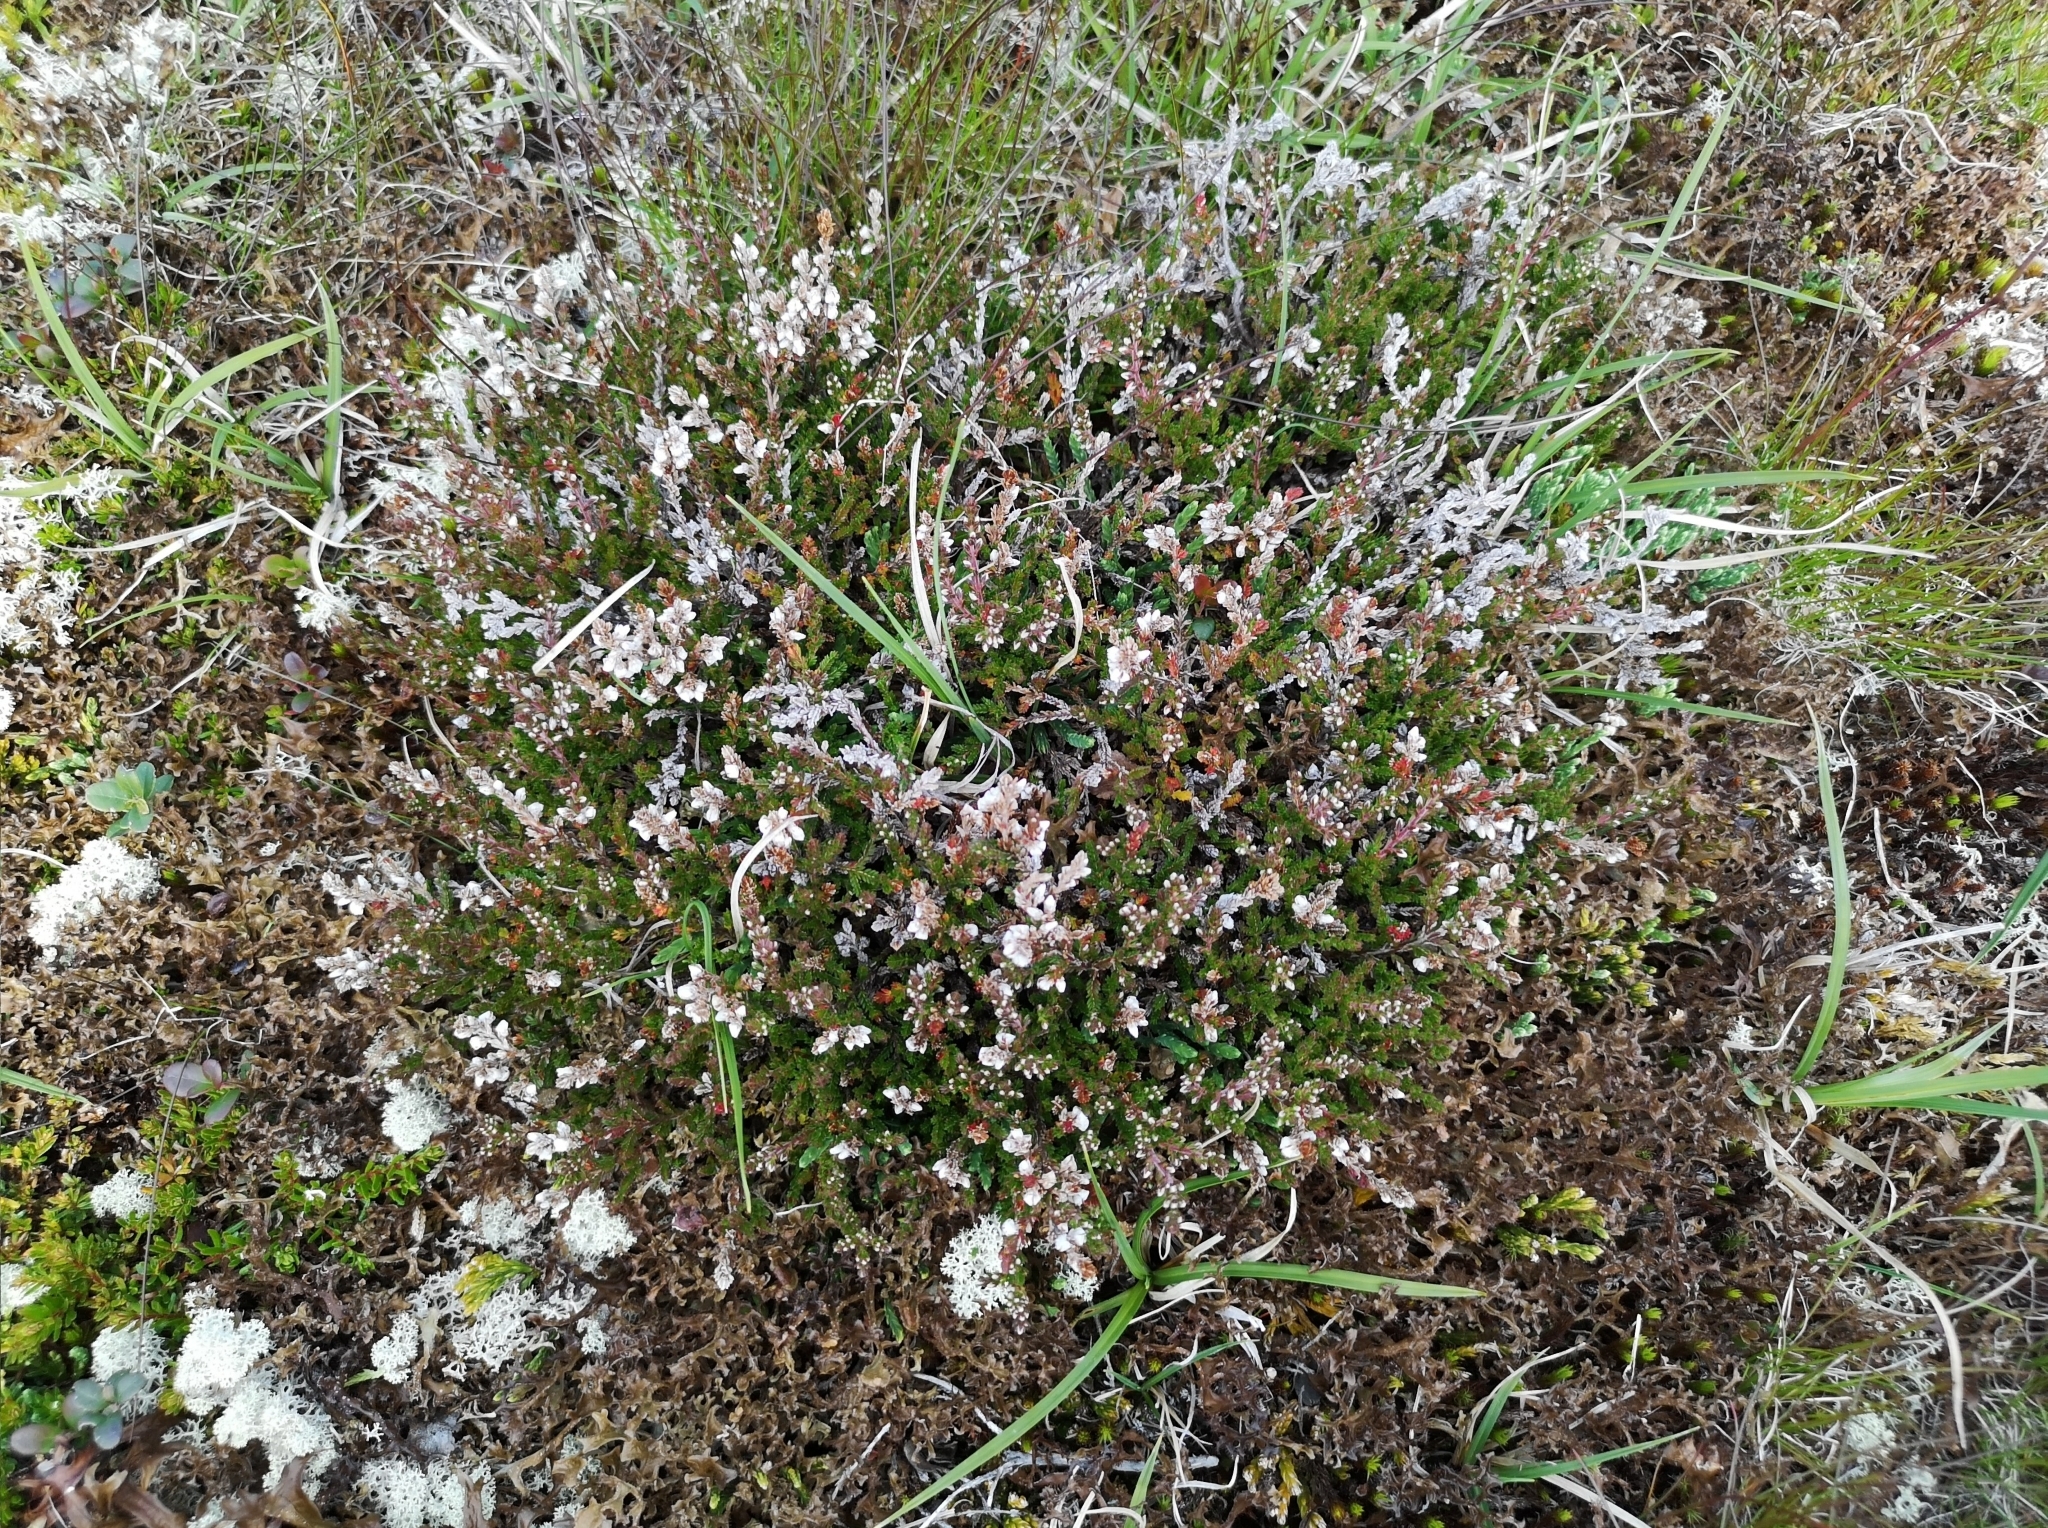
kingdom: Plantae
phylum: Tracheophyta
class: Magnoliopsida
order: Ericales
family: Ericaceae
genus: Calluna
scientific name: Calluna vulgaris
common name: Heather
